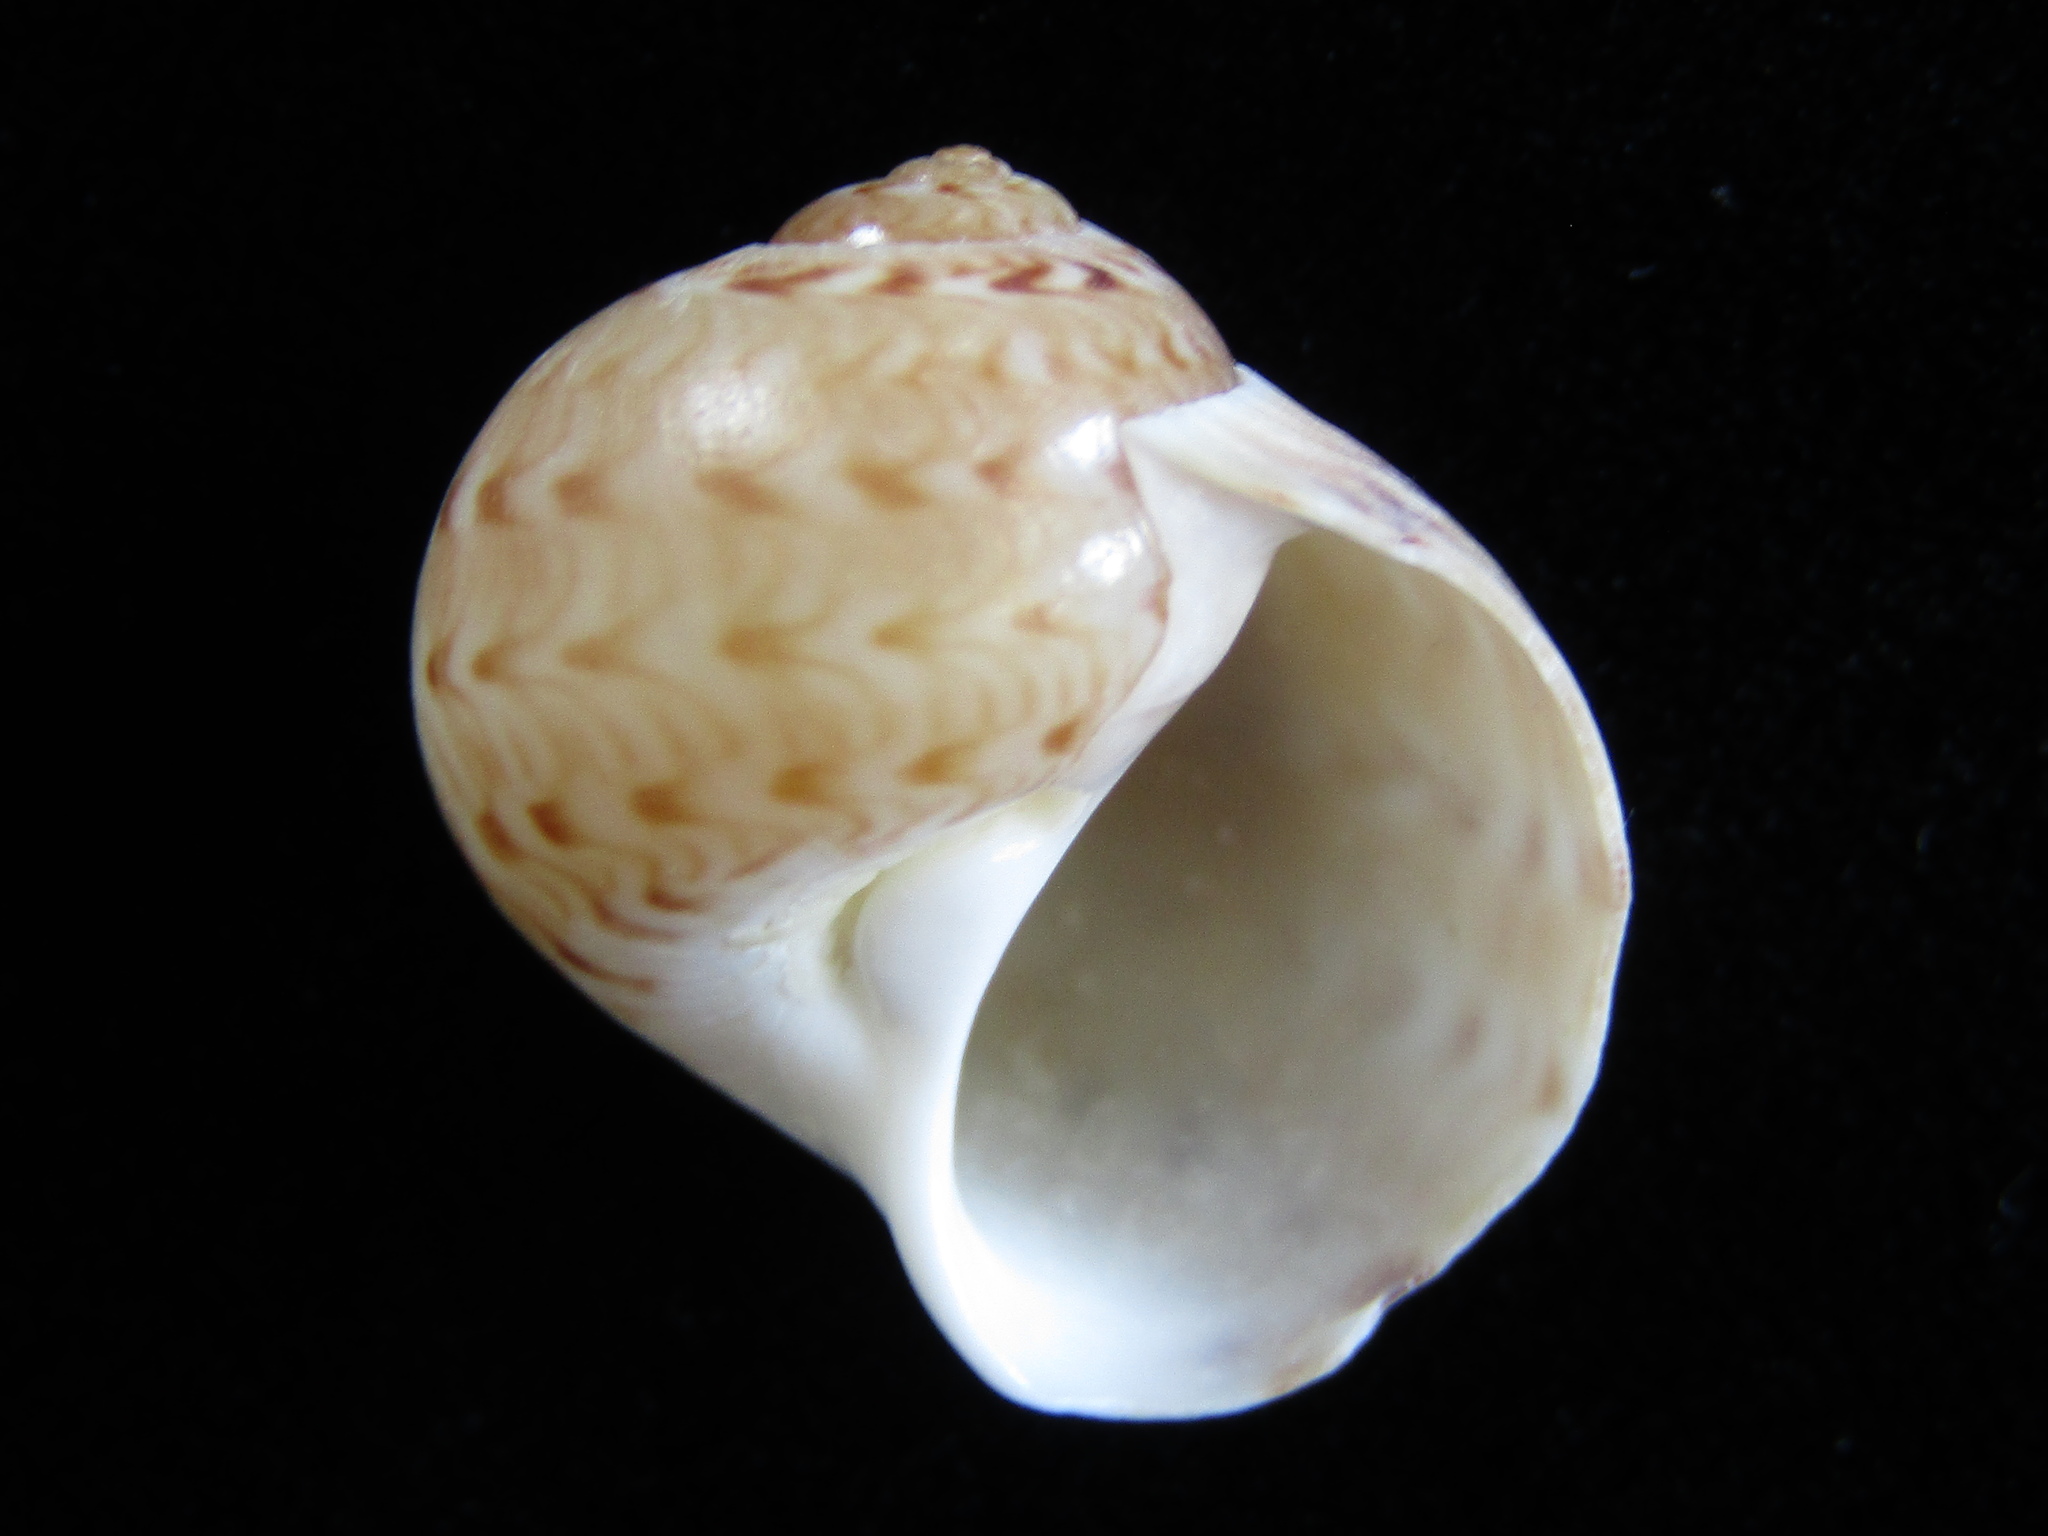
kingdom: Animalia
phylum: Mollusca
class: Gastropoda
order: Littorinimorpha
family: Naticidae
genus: Tanea
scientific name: Tanea zelandica
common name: New zealand moonsnail
